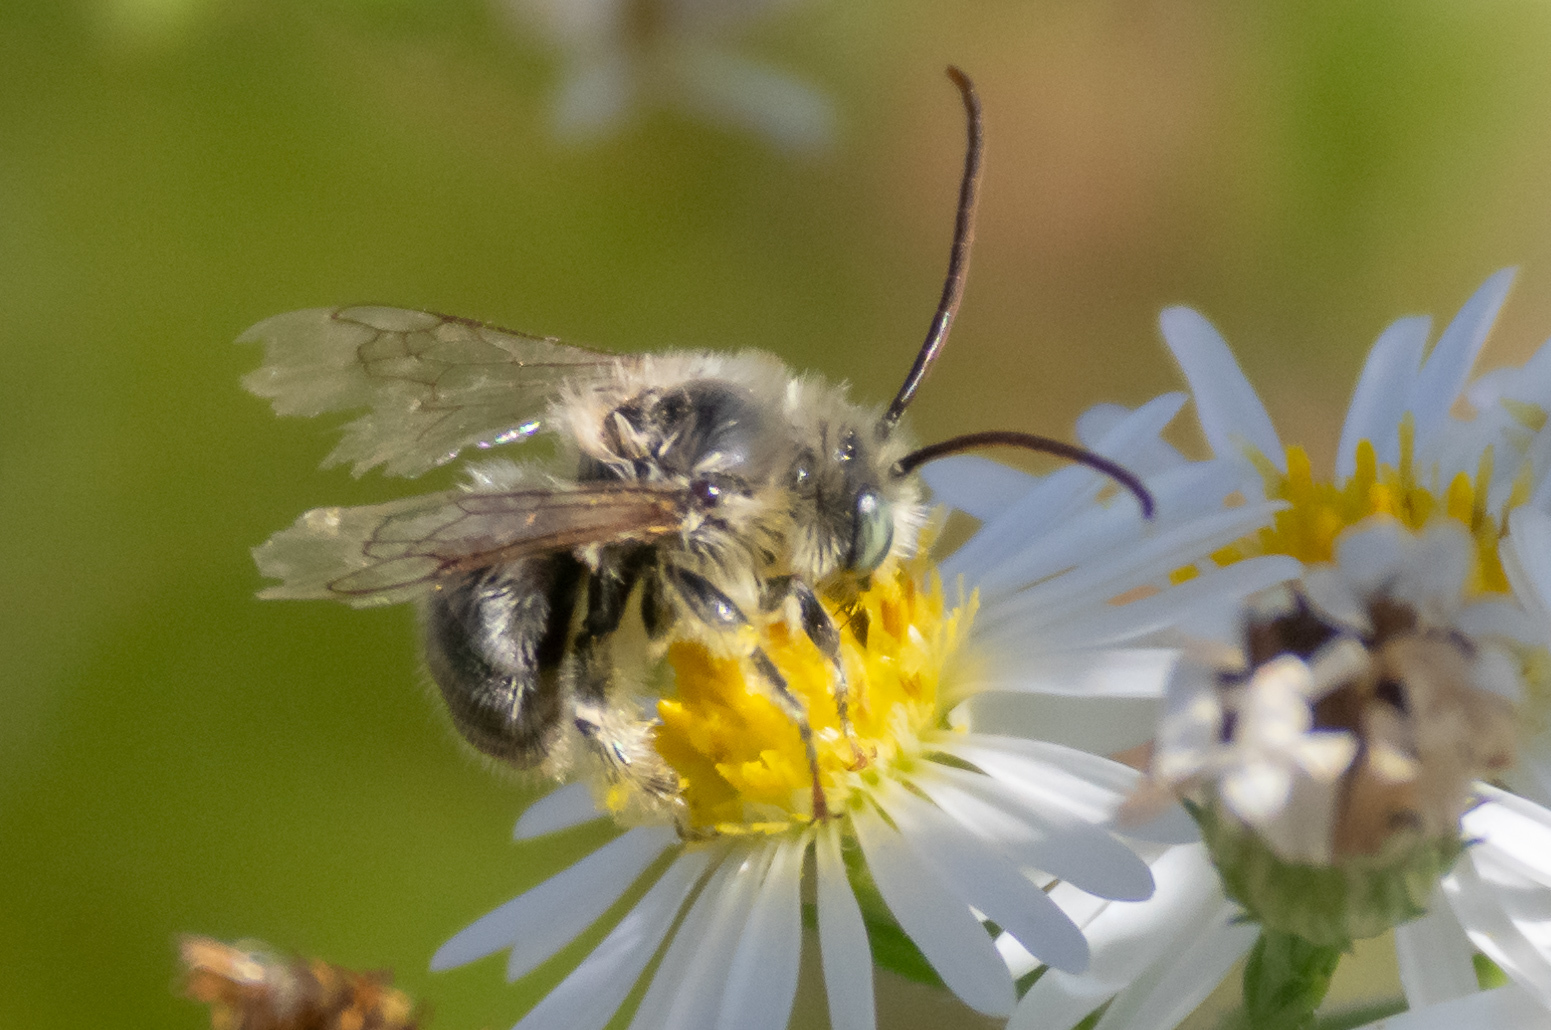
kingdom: Animalia
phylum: Arthropoda
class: Insecta
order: Hymenoptera
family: Apidae
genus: Melissodes
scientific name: Melissodes druriellus
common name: Drury's long-horned bee
